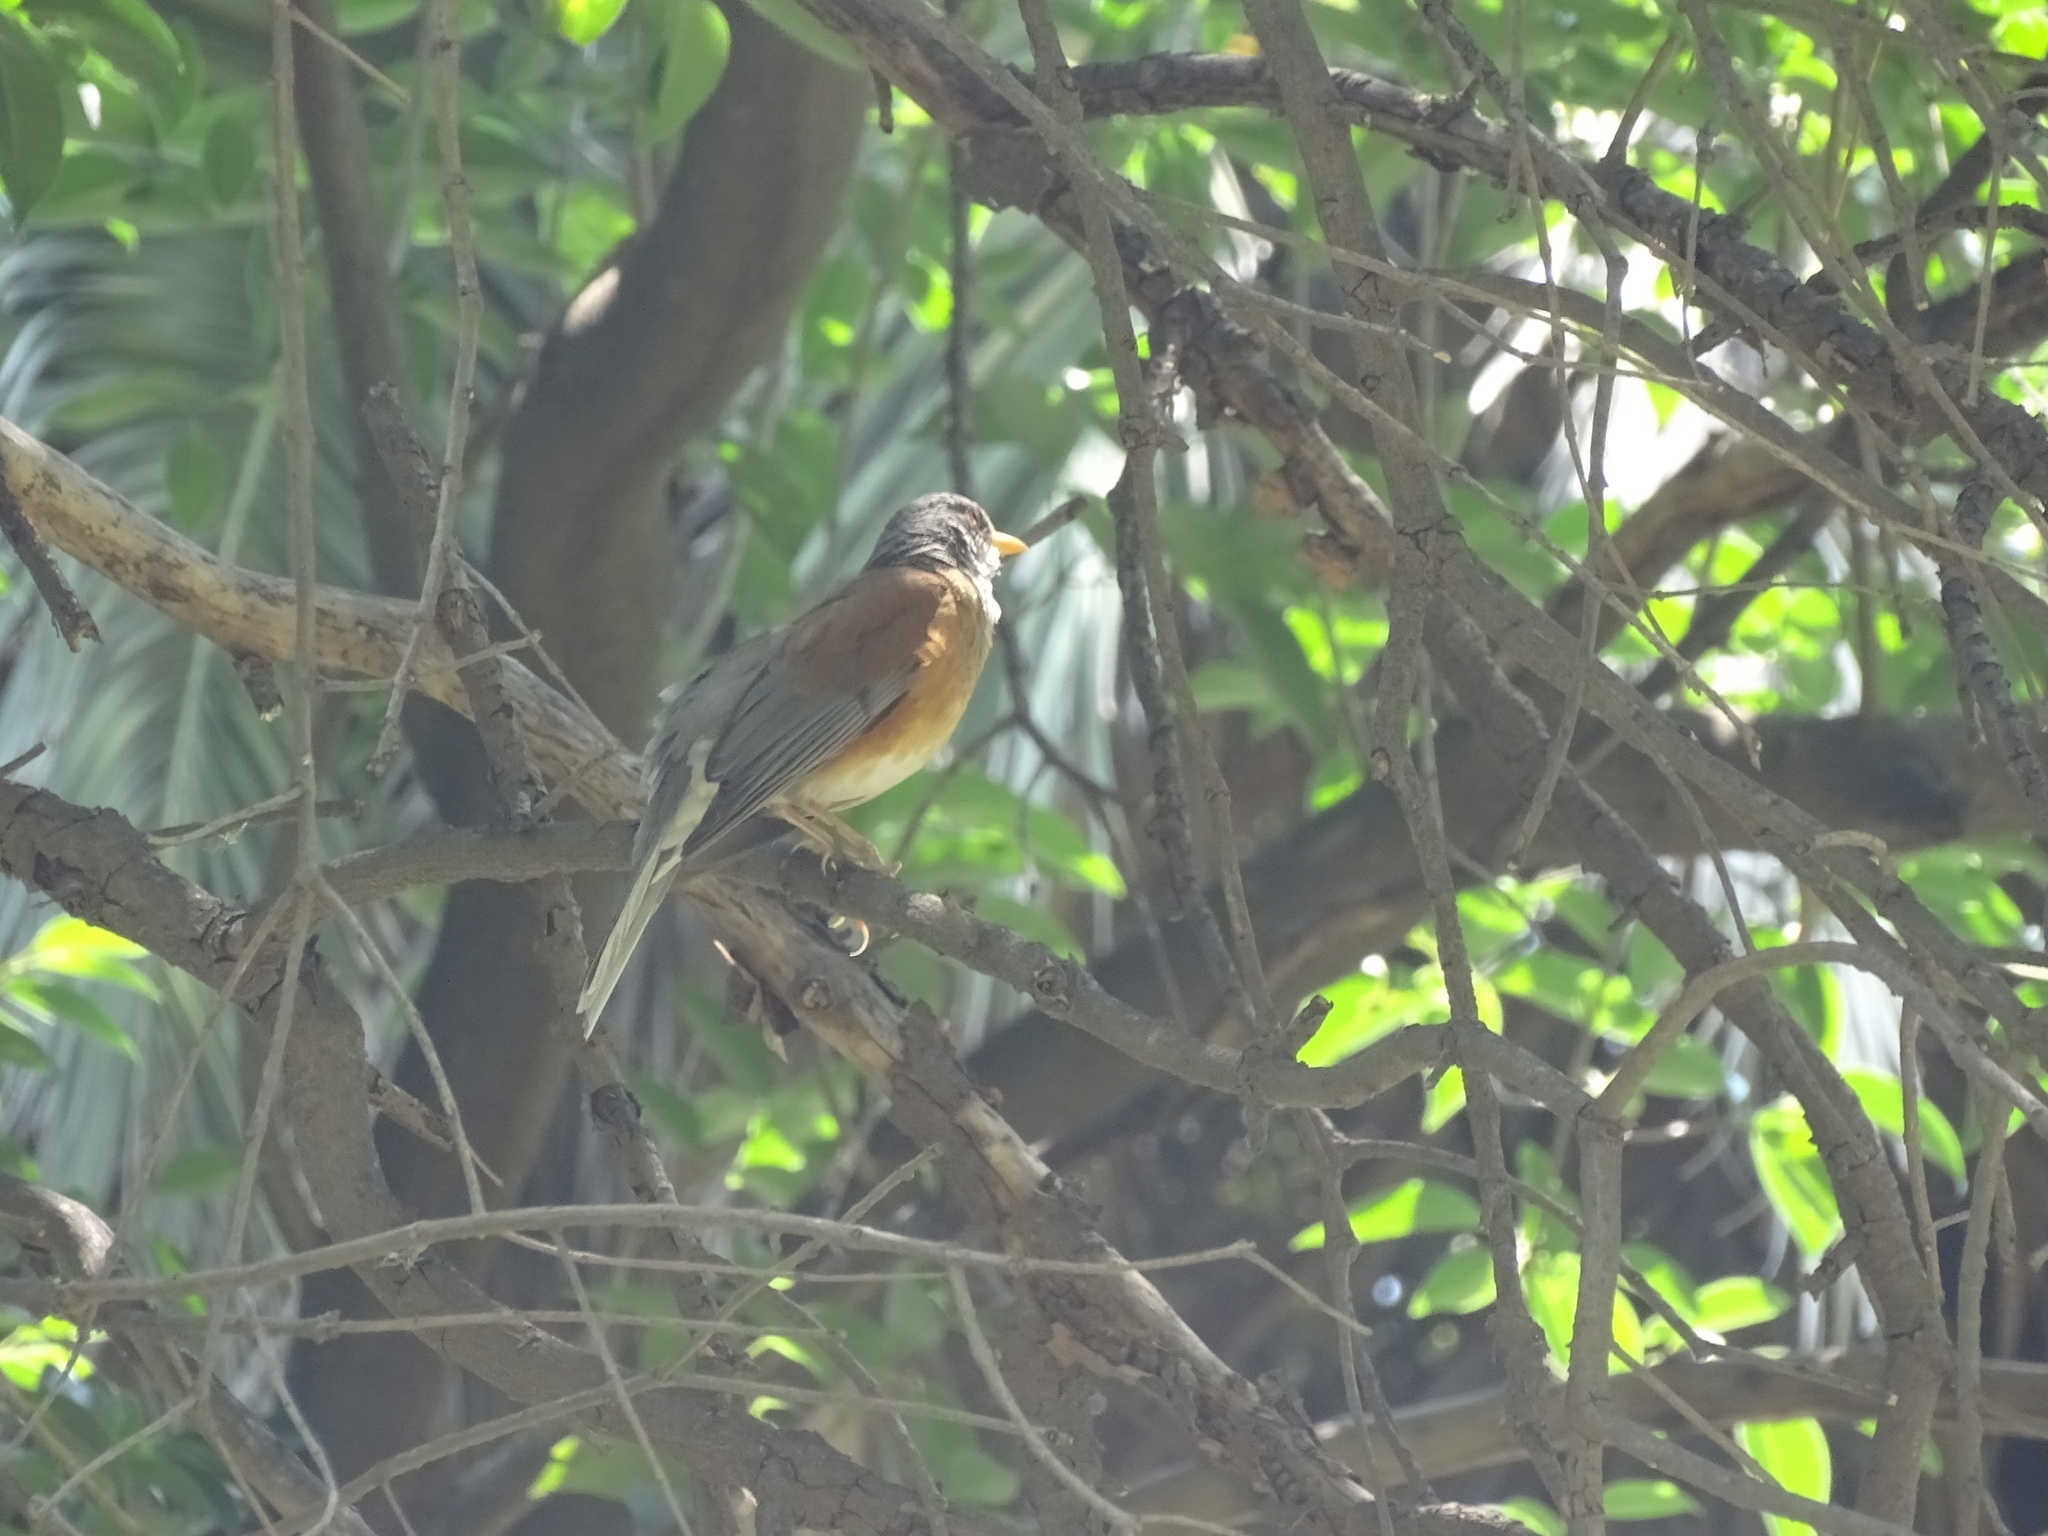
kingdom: Animalia
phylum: Chordata
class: Aves
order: Passeriformes
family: Turdidae
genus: Turdus
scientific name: Turdus rufopalliatus
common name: Rufous-backed robin
